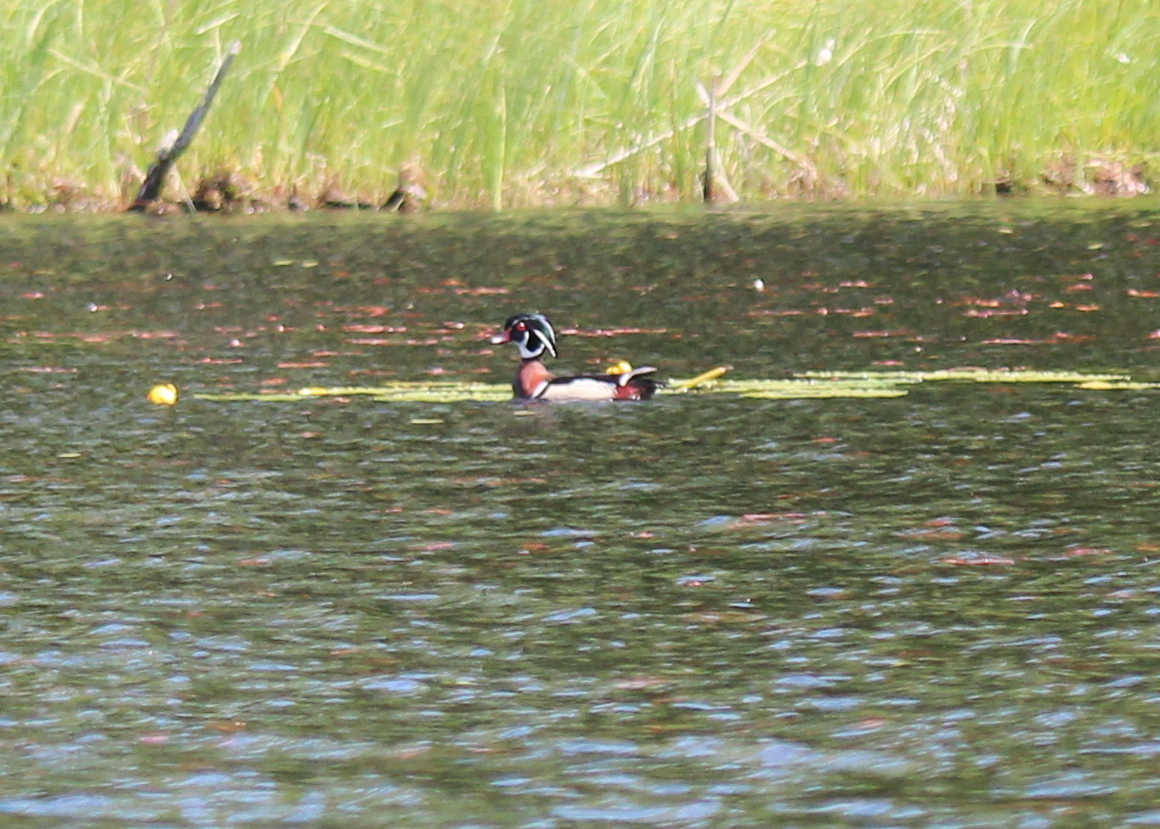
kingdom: Animalia
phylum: Chordata
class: Aves
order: Anseriformes
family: Anatidae
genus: Aix
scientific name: Aix sponsa
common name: Wood duck
